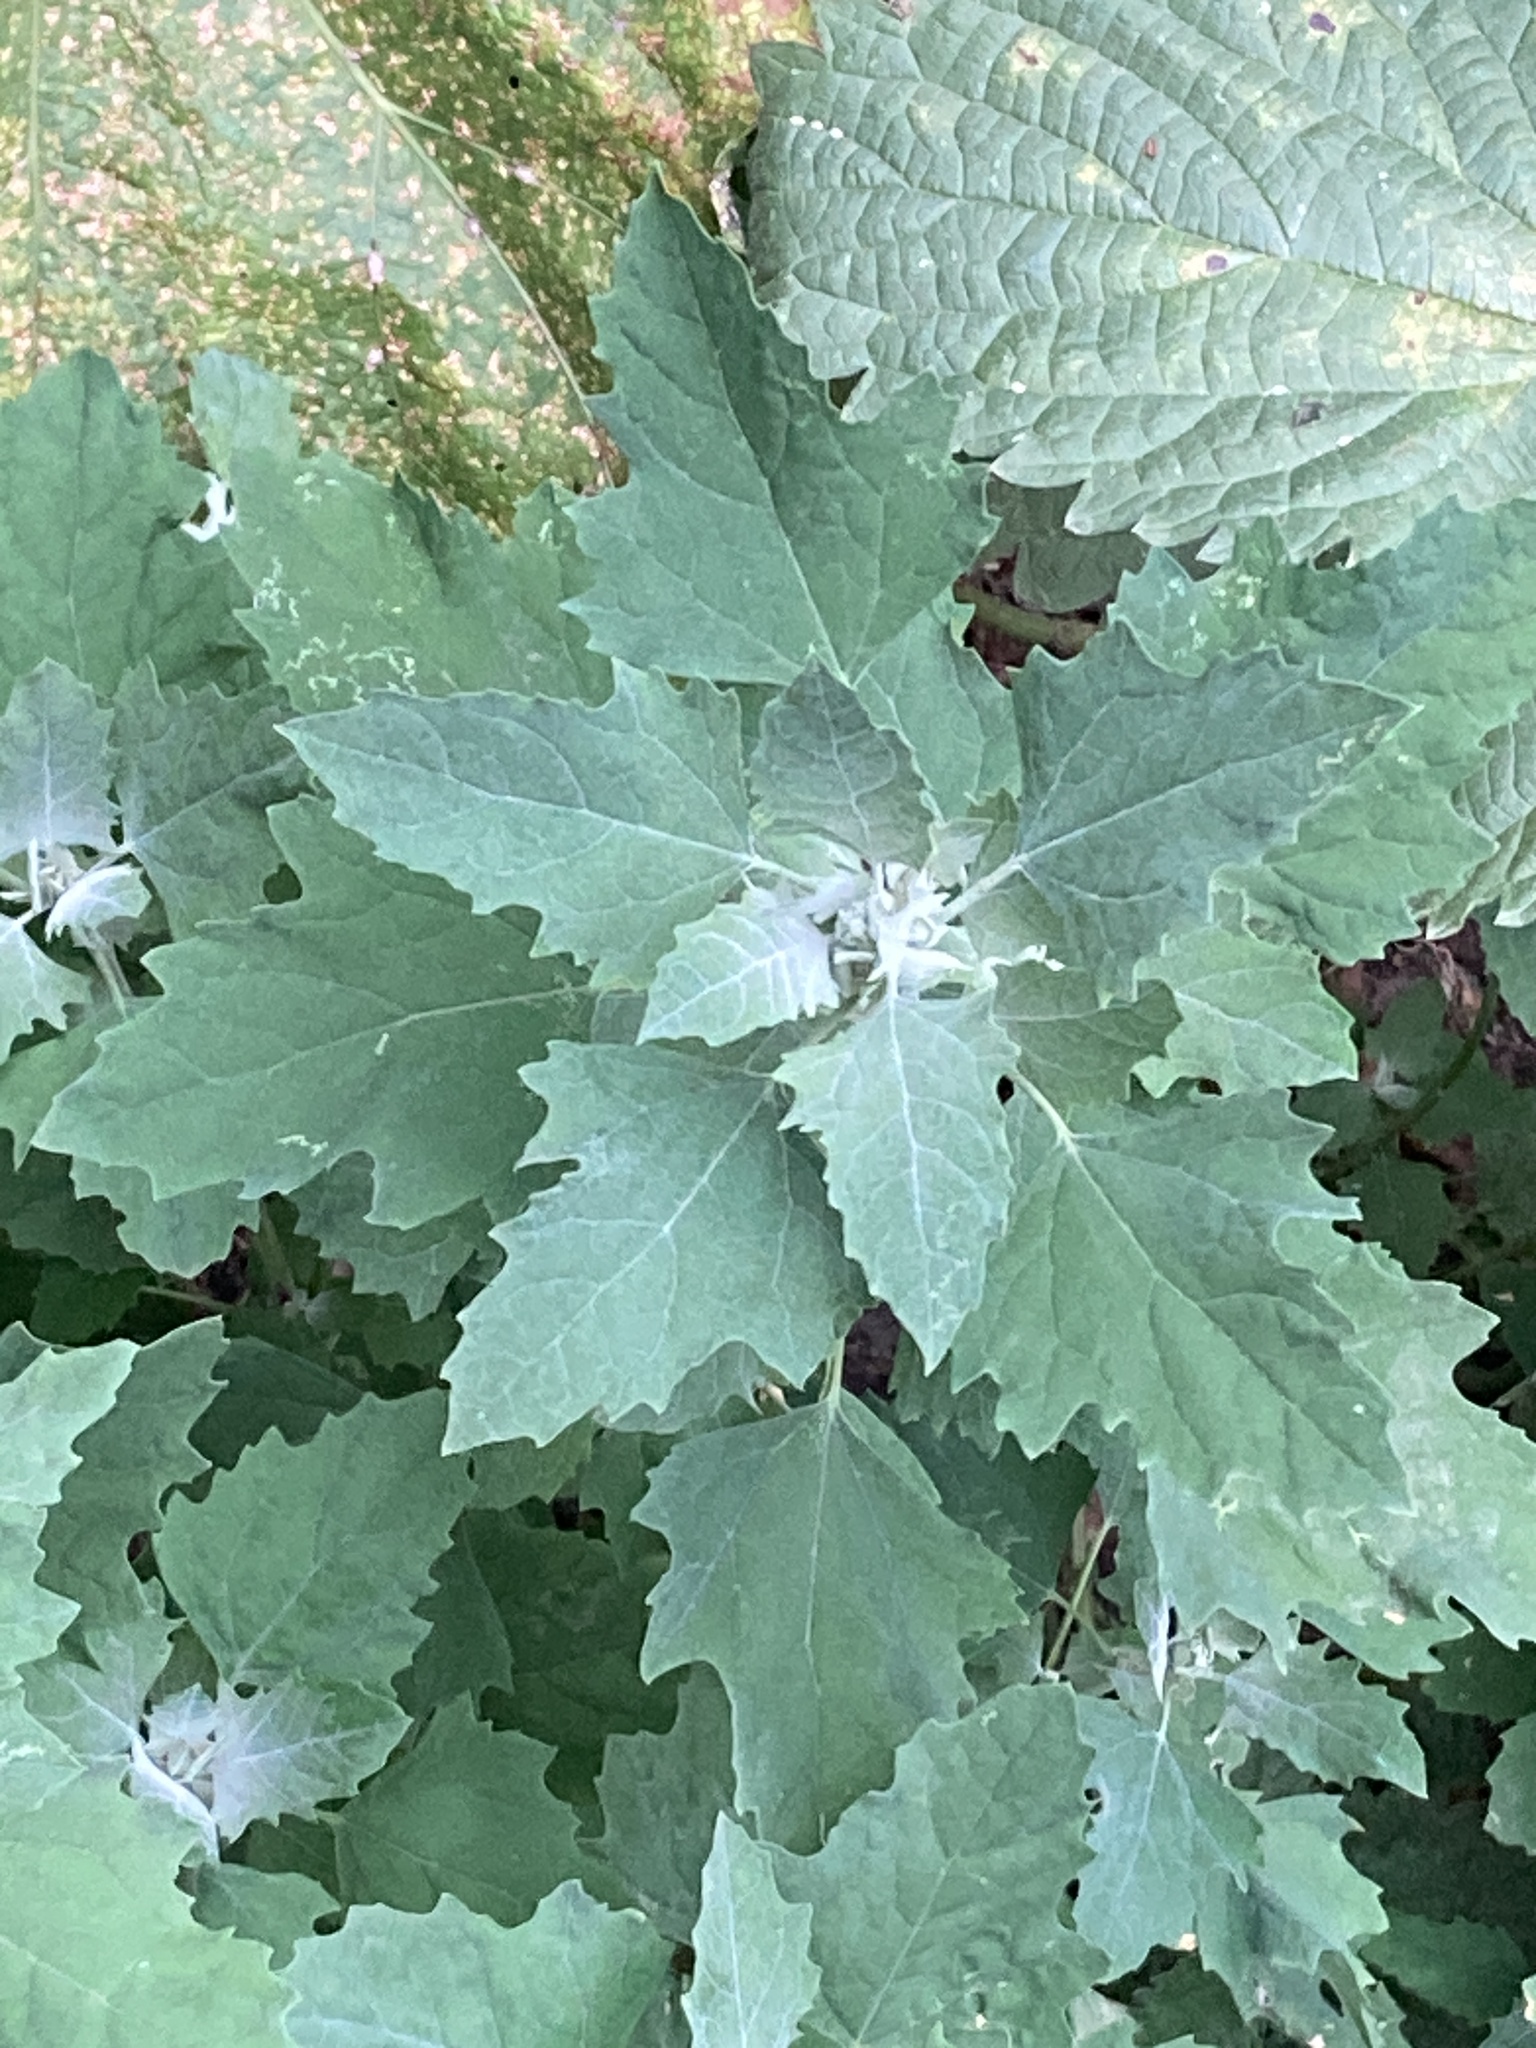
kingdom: Plantae
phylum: Tracheophyta
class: Magnoliopsida
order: Caryophyllales
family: Amaranthaceae
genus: Chenopodium
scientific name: Chenopodium album
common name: Fat-hen
